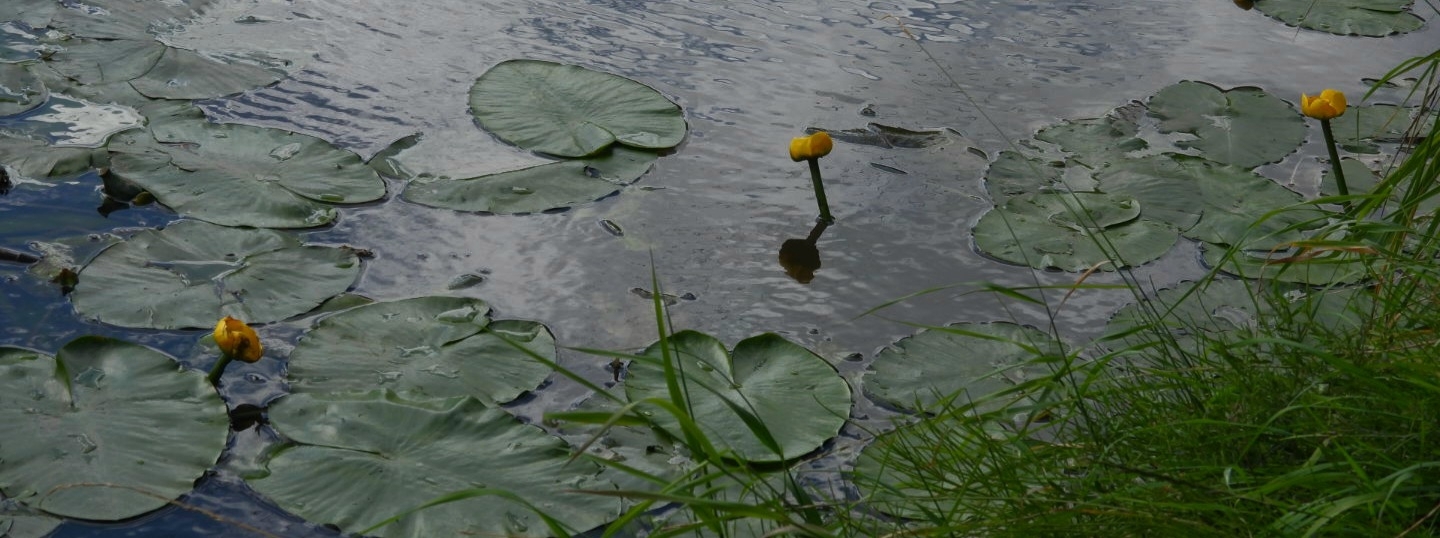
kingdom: Plantae
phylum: Tracheophyta
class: Magnoliopsida
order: Nymphaeales
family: Nymphaeaceae
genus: Nuphar
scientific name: Nuphar lutea
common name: Yellow water-lily
